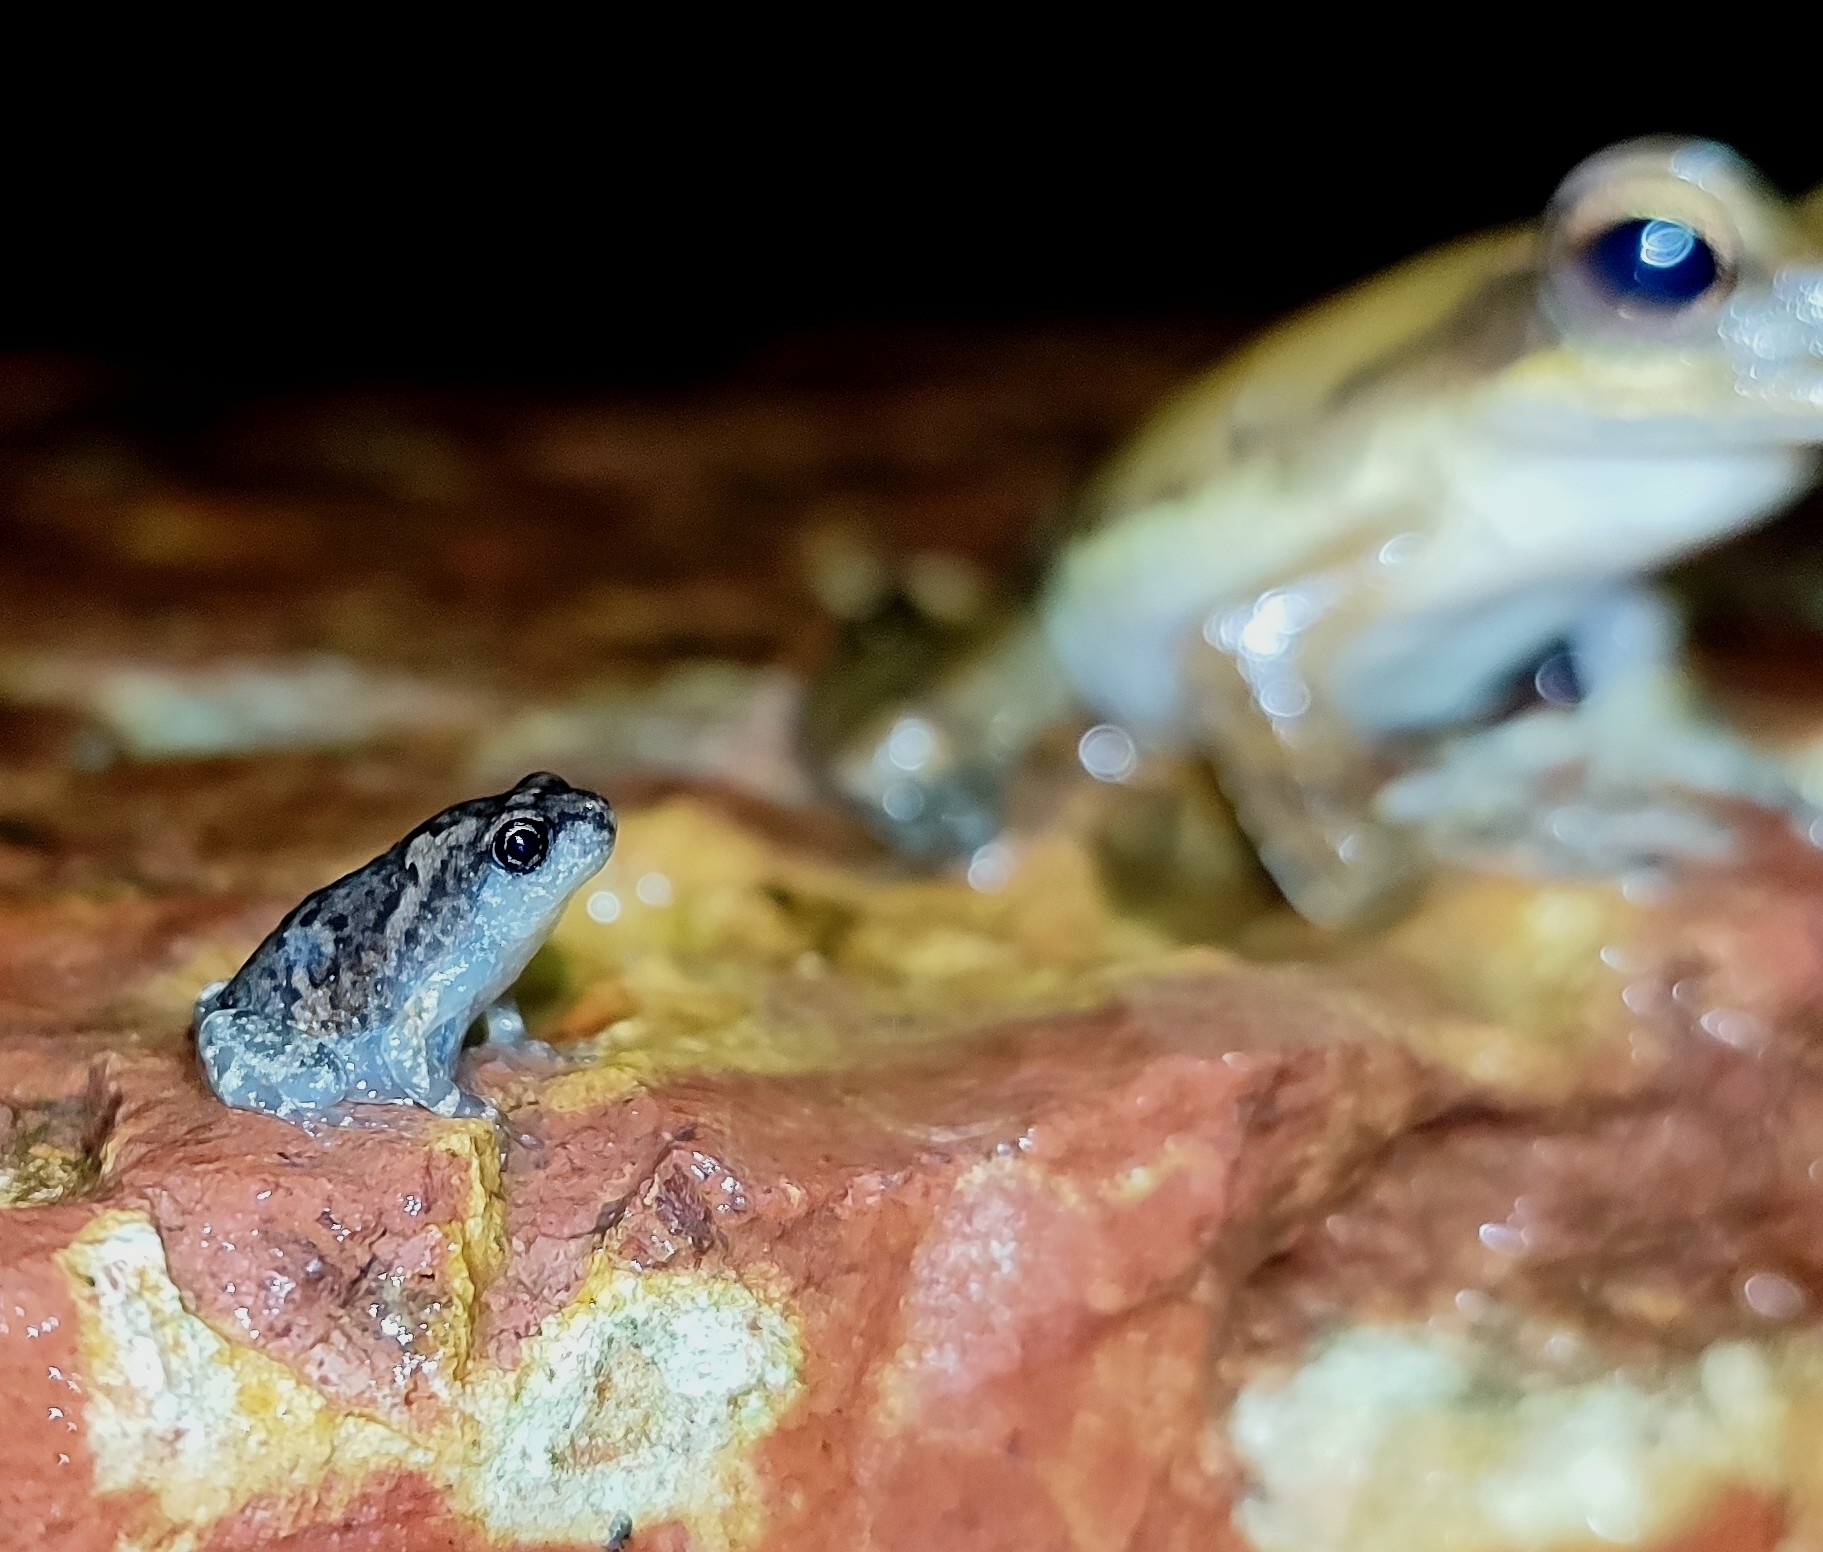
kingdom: Animalia
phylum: Chordata
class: Amphibia
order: Anura
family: Microhylidae
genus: Uperodon
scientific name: Uperodon taprobanicus
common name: Ceylon kaloula
